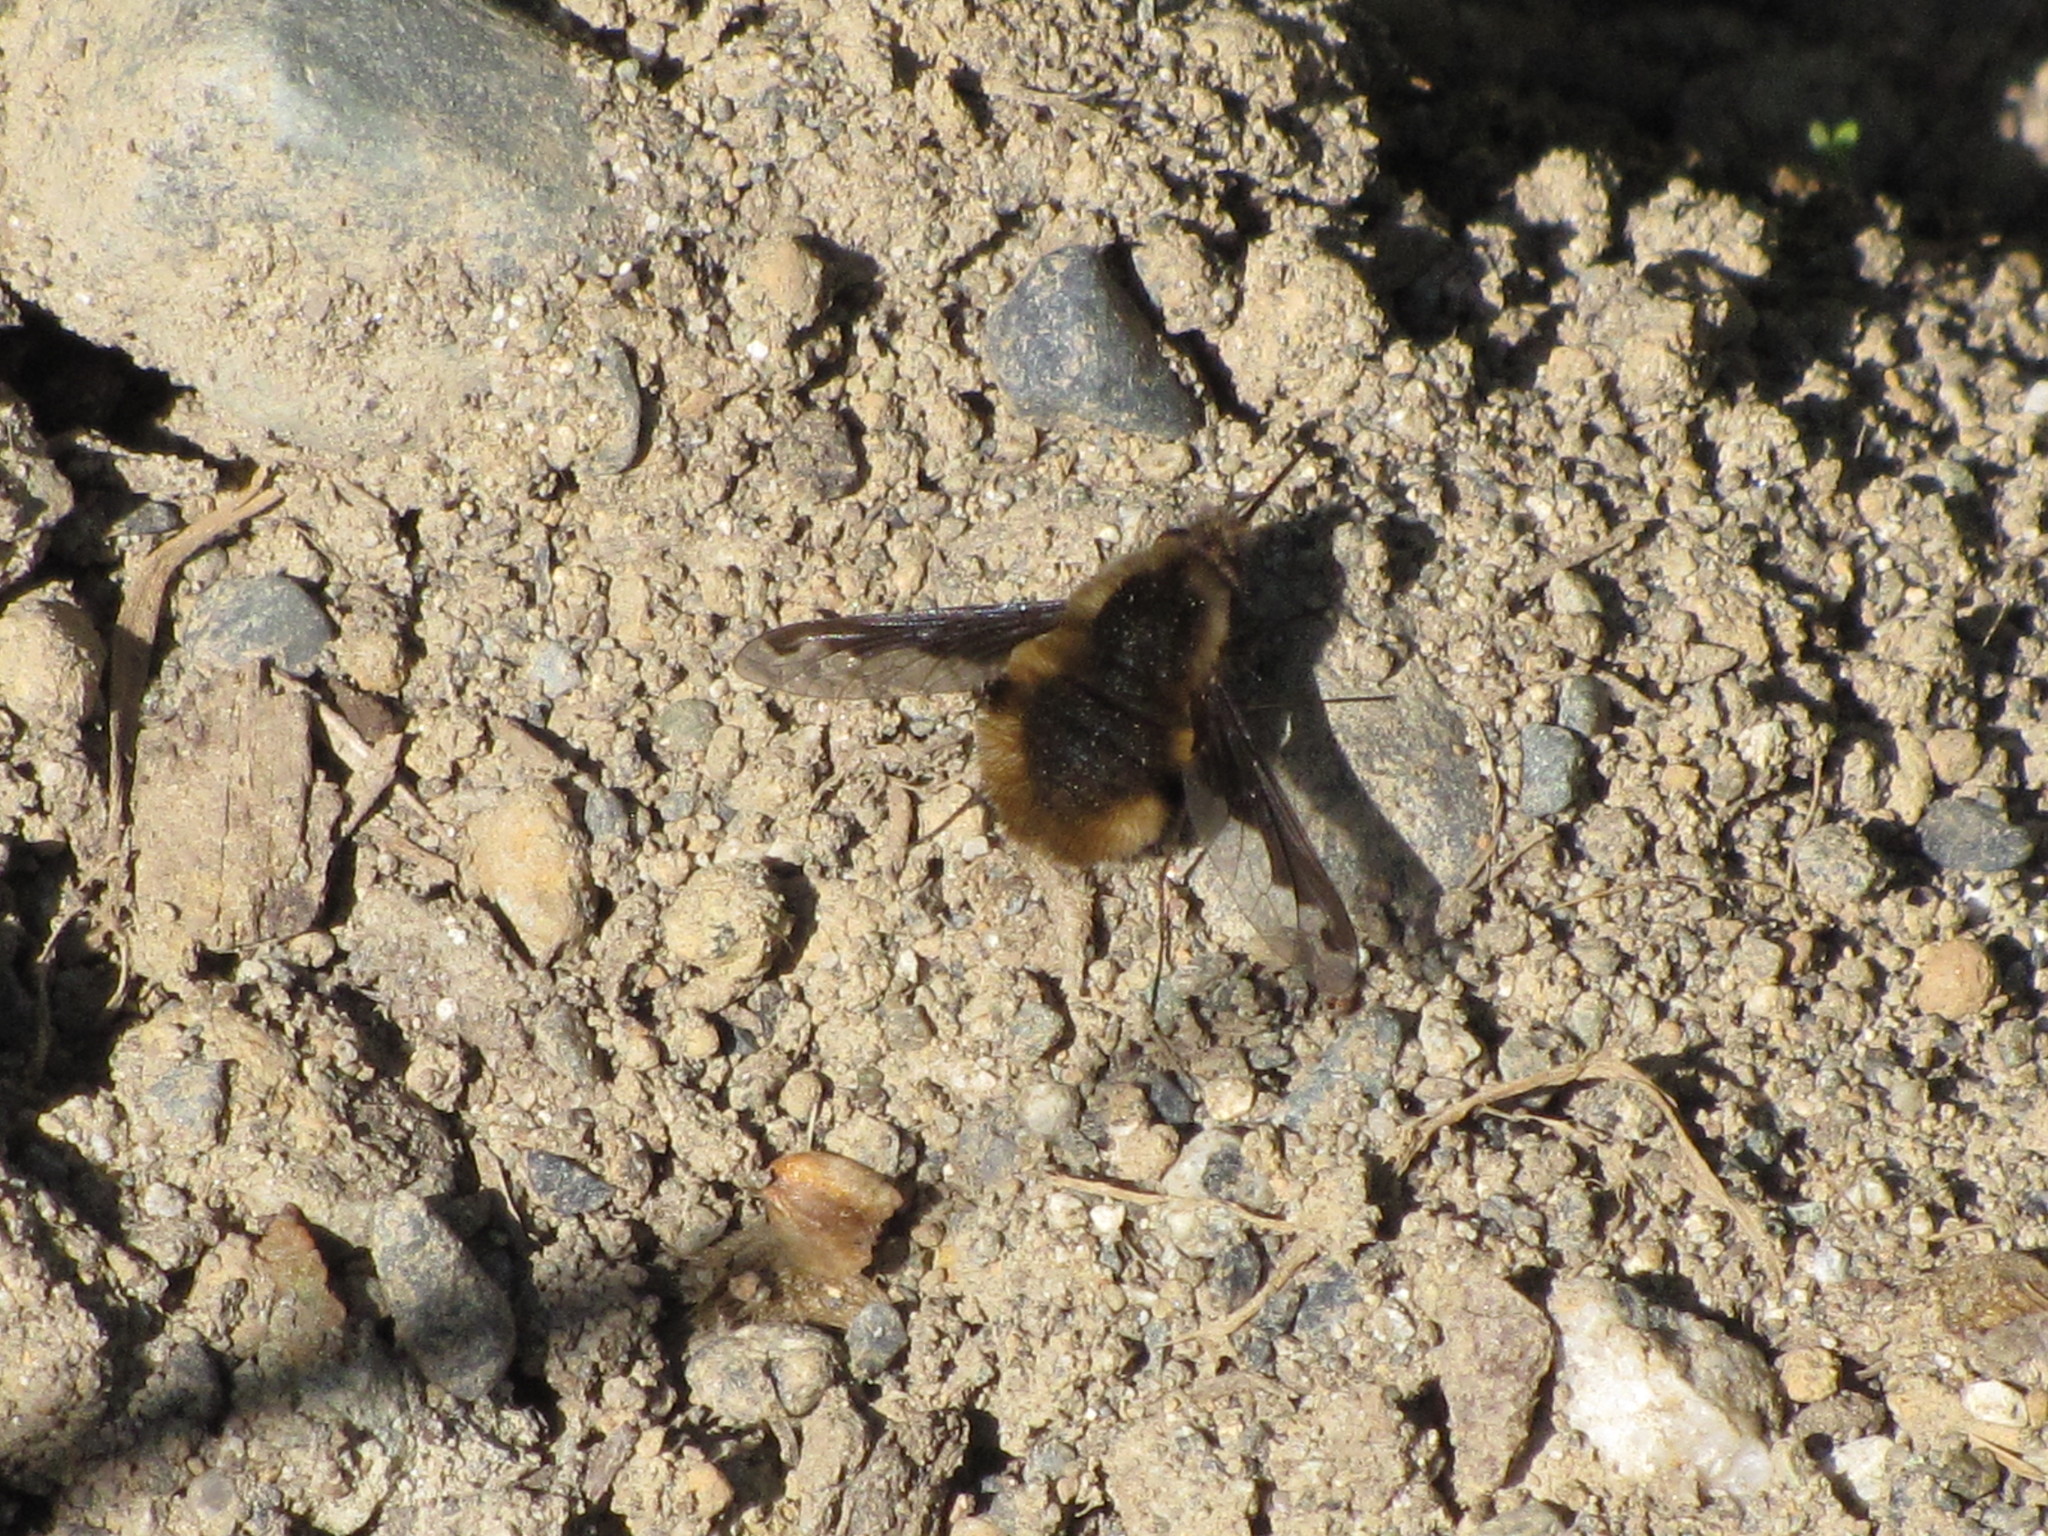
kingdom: Animalia
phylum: Arthropoda
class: Insecta
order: Diptera
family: Bombyliidae
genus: Bombylius
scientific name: Bombylius major
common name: Bee fly
